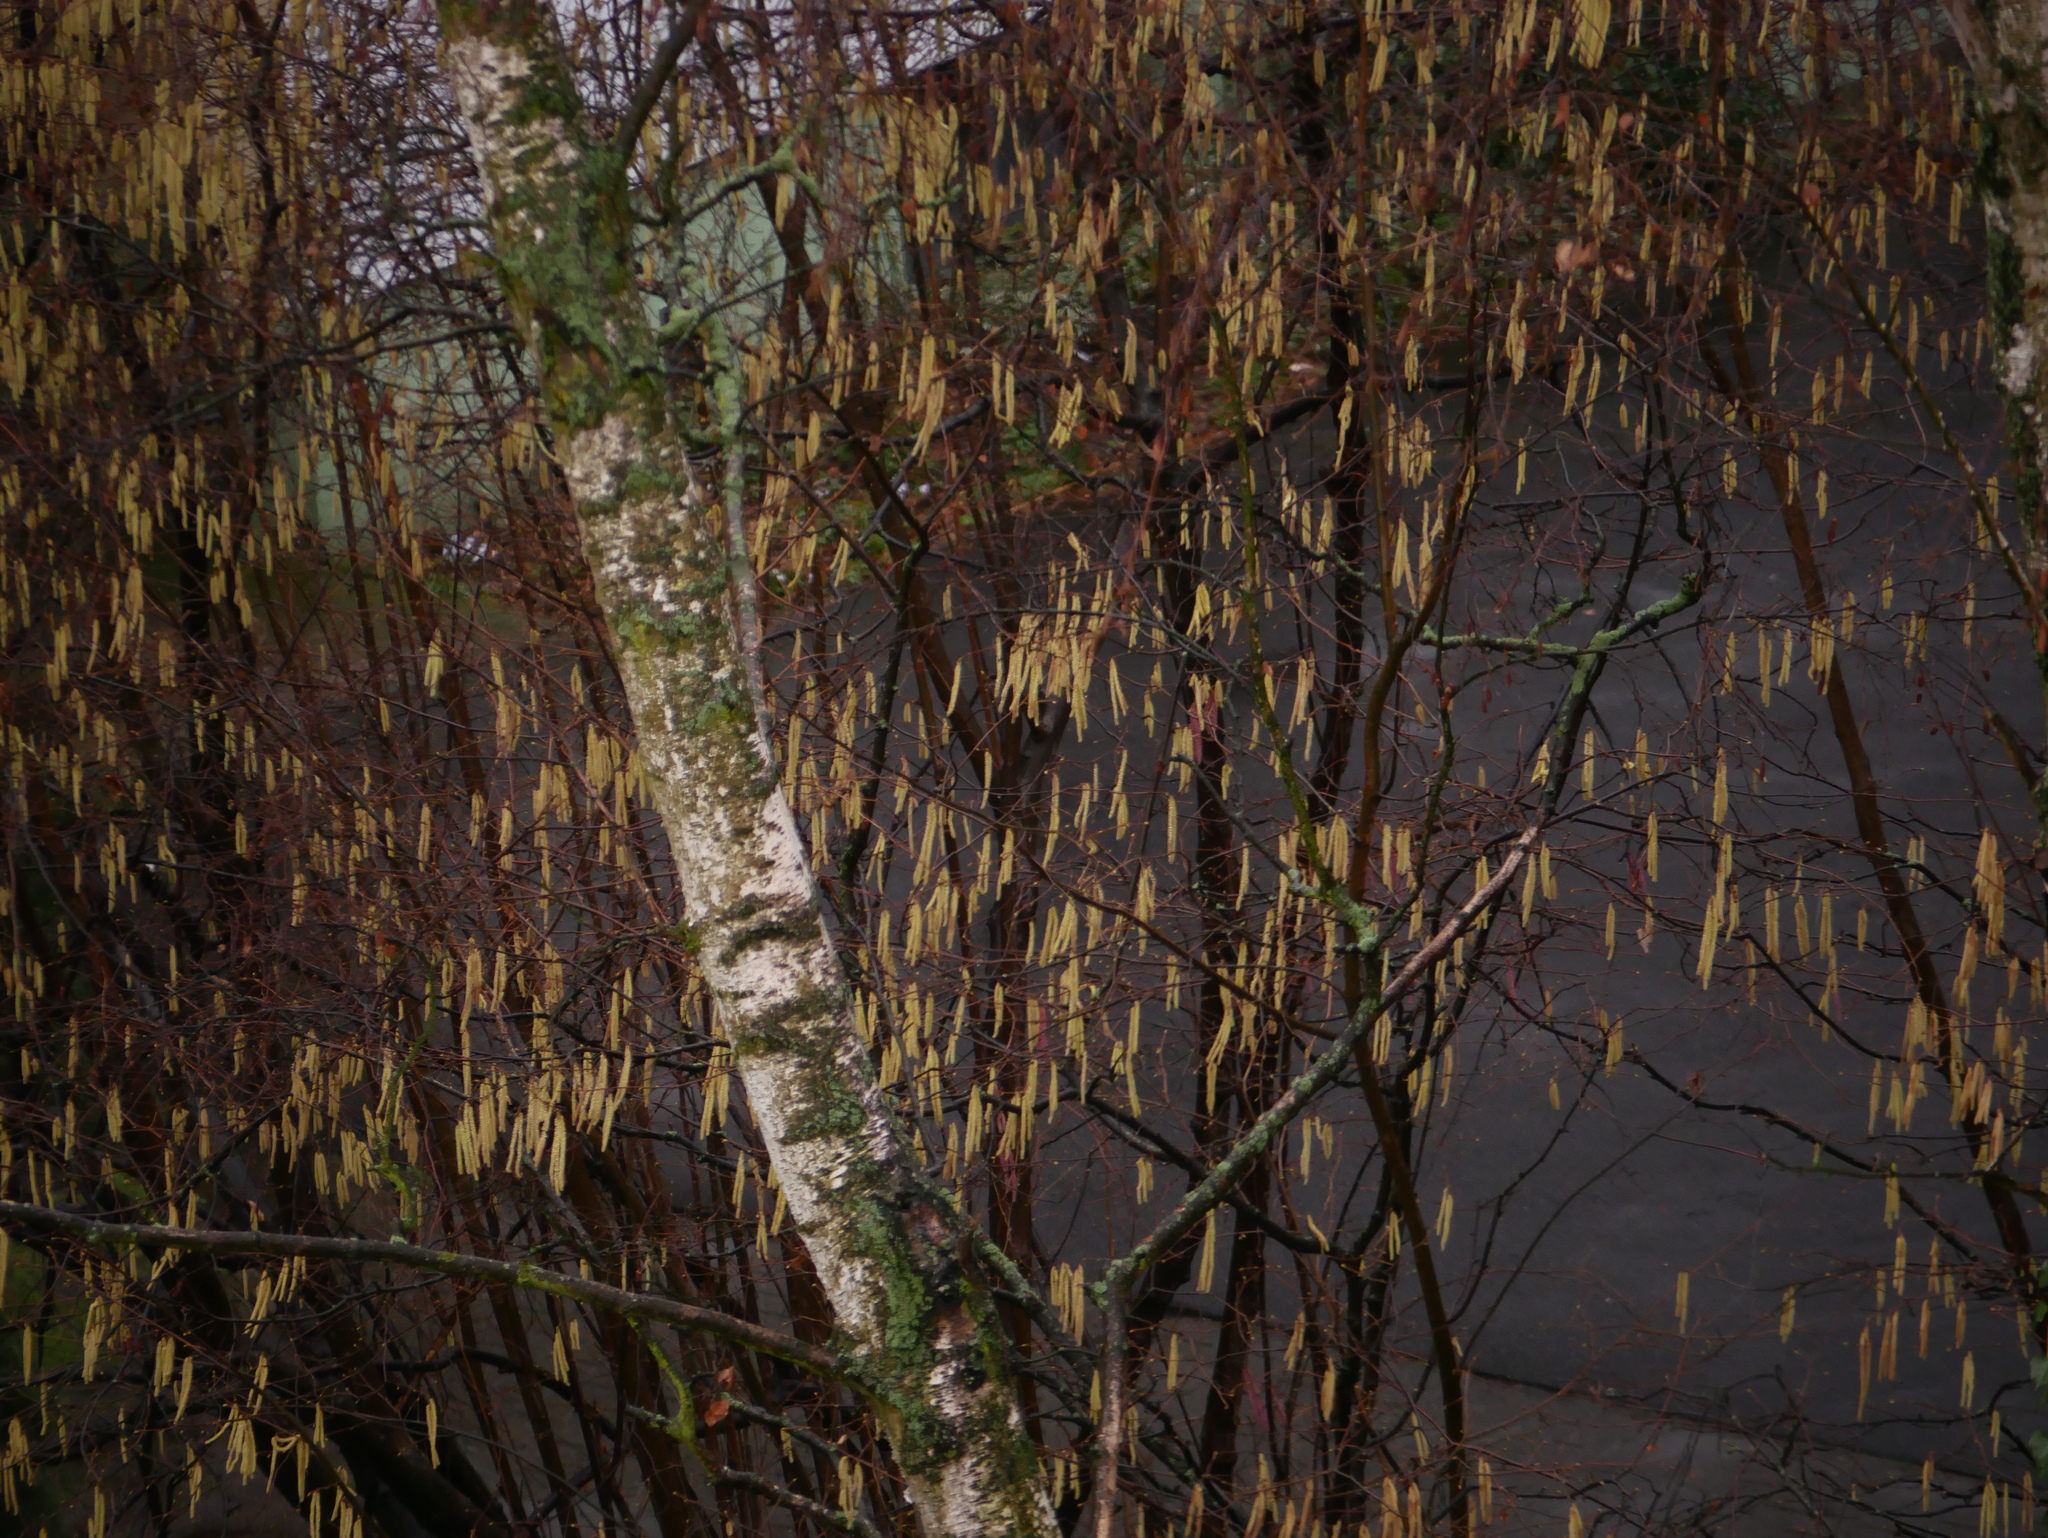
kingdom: Plantae
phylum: Tracheophyta
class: Magnoliopsida
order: Fagales
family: Betulaceae
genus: Corylus
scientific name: Corylus avellana
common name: European hazel
